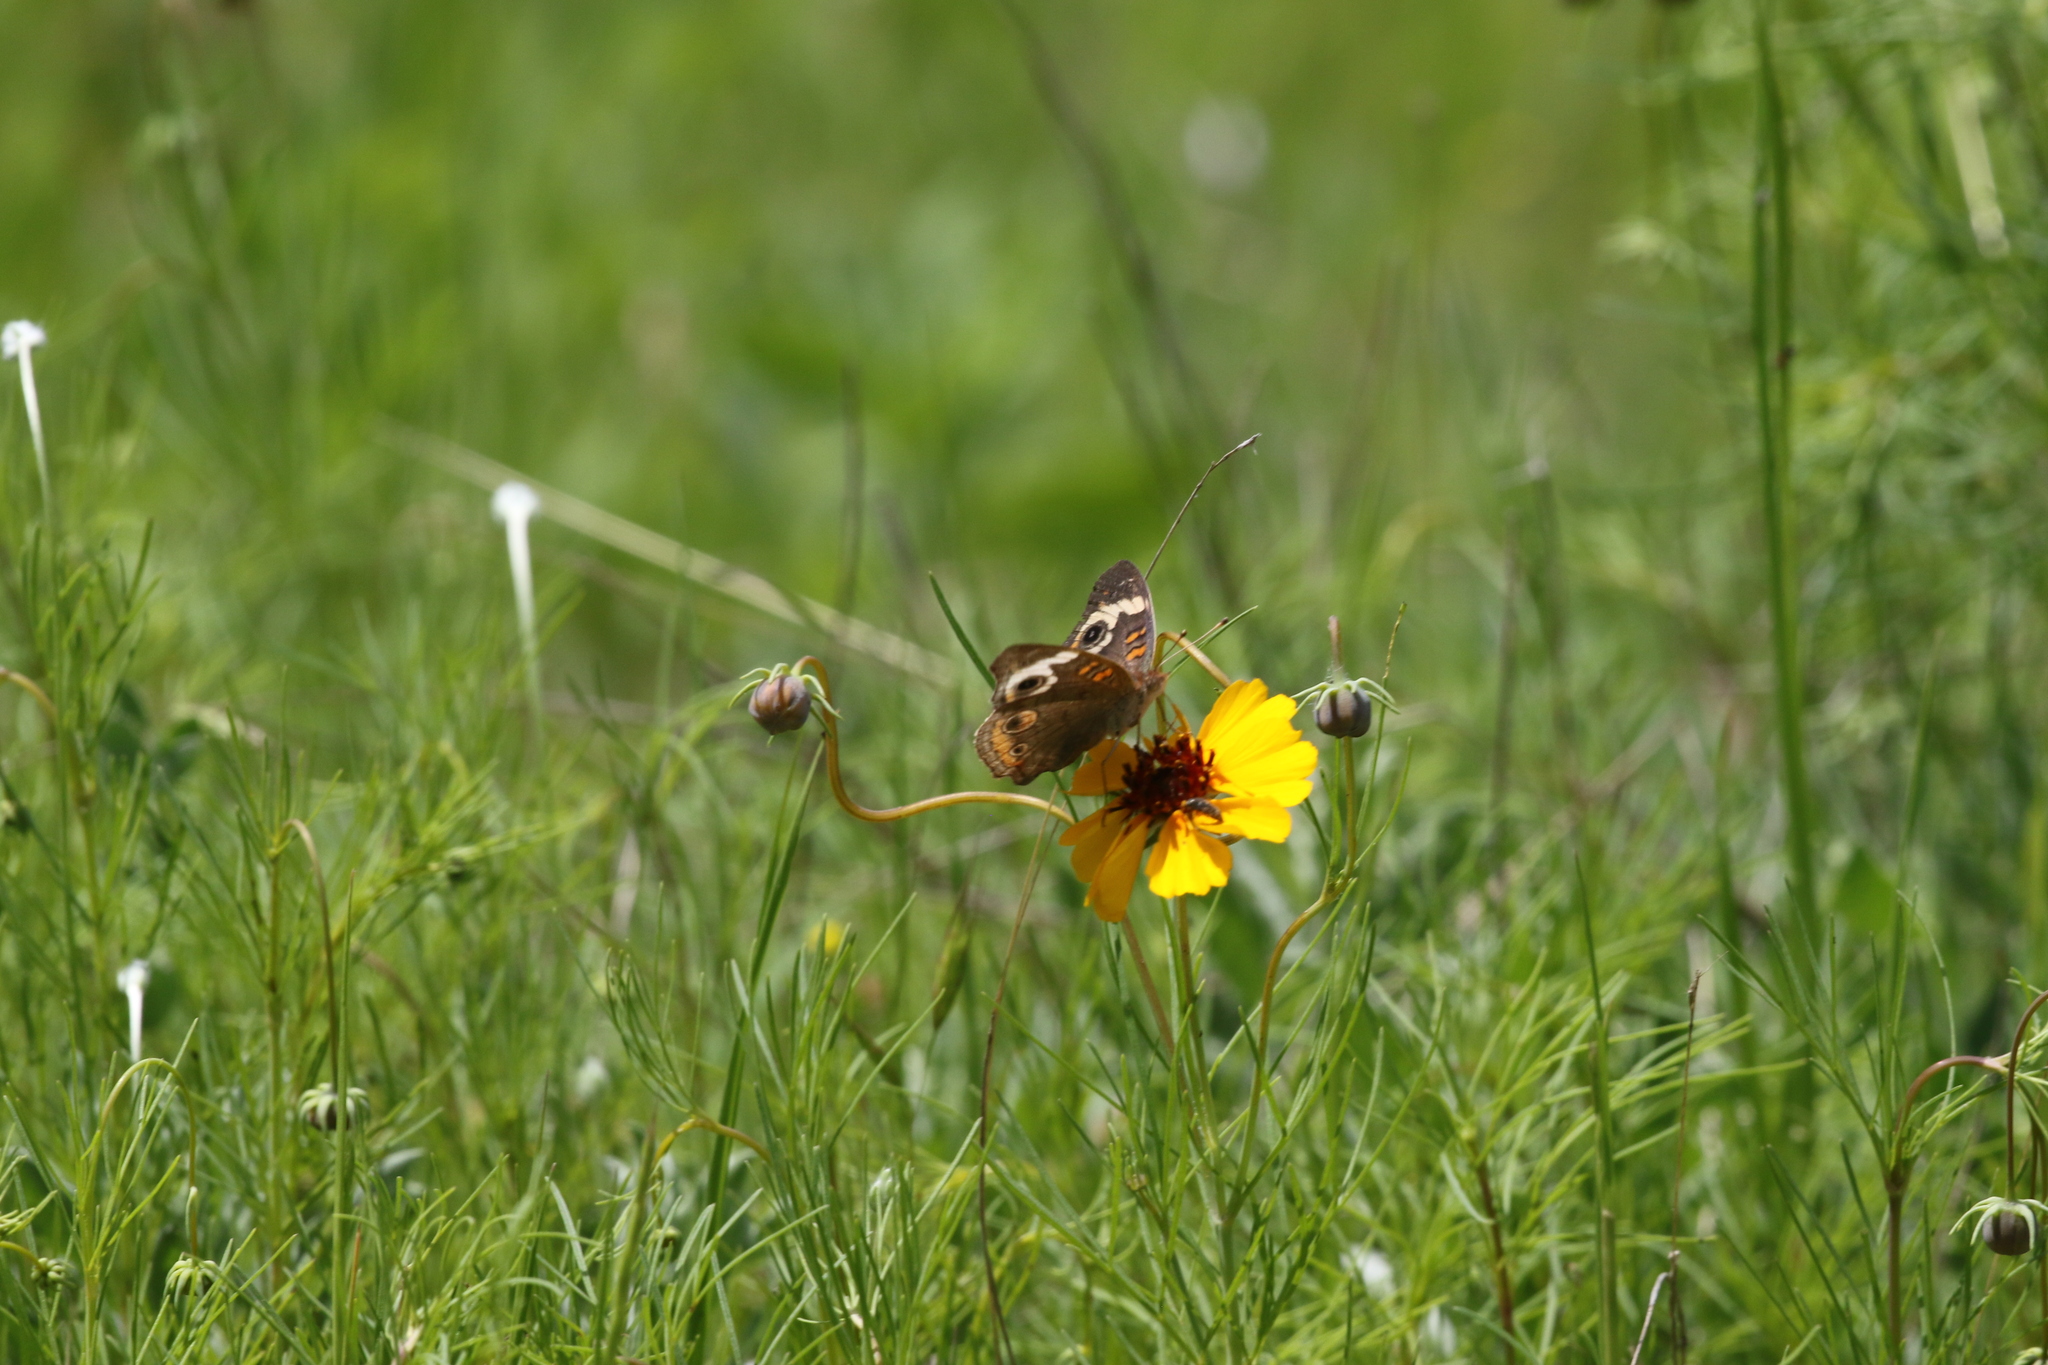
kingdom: Animalia
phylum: Arthropoda
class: Insecta
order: Lepidoptera
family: Nymphalidae
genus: Junonia
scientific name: Junonia coenia
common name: Common buckeye
